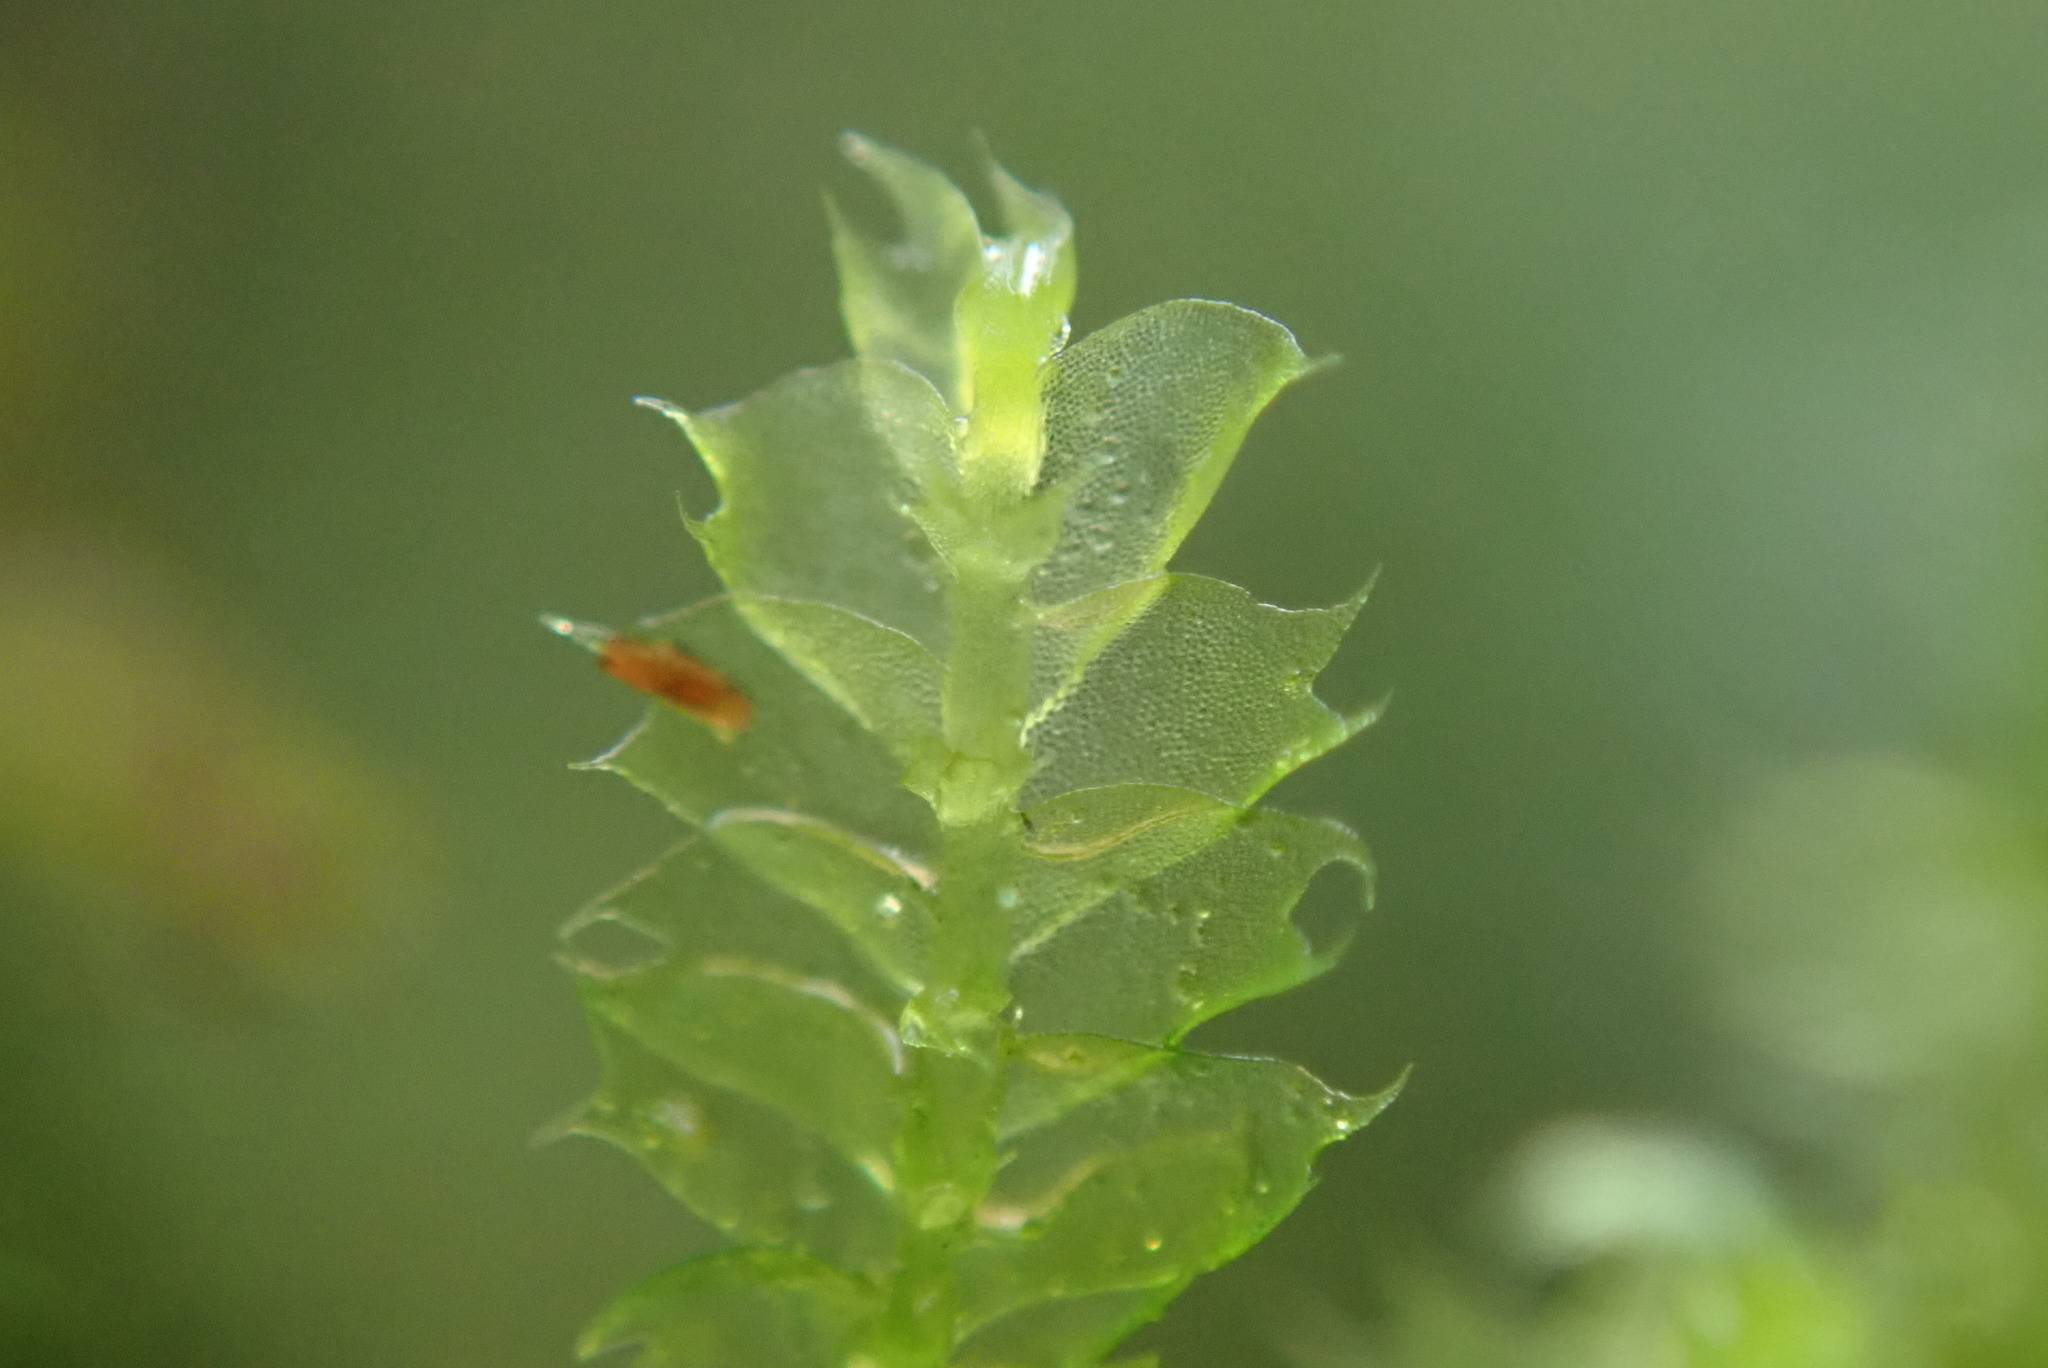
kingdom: Plantae
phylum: Marchantiophyta
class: Jungermanniopsida
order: Jungermanniales
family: Lophocoleaceae
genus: Lophocolea
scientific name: Lophocolea bidentata
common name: Bifid crestwort
